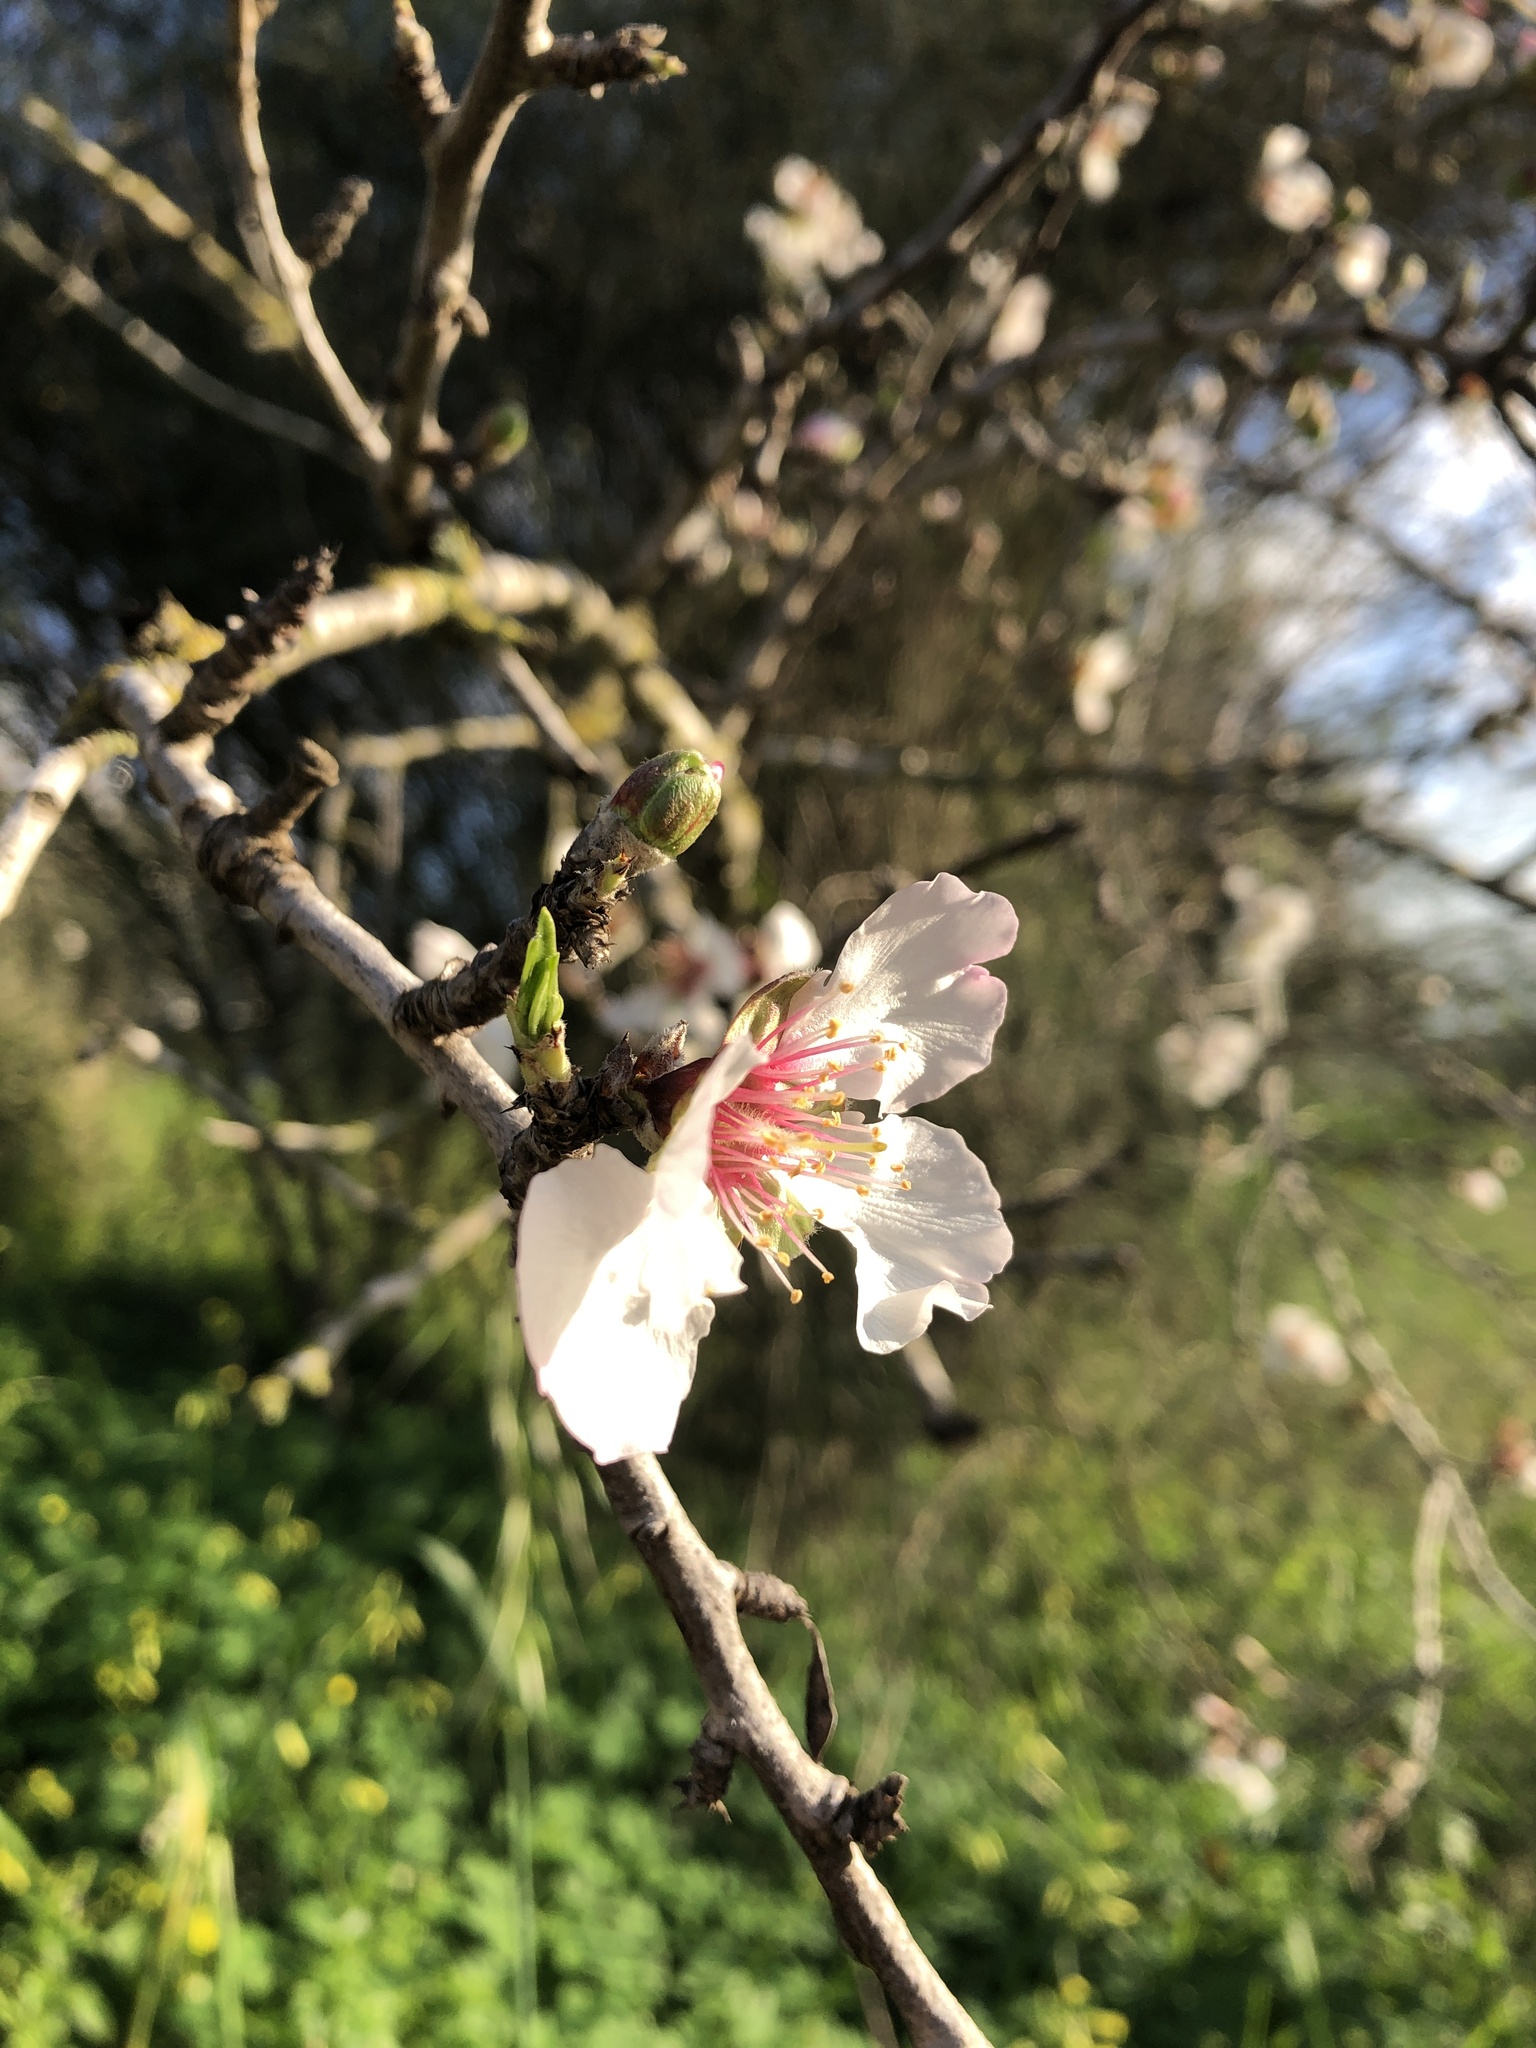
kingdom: Plantae
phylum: Tracheophyta
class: Magnoliopsida
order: Rosales
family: Rosaceae
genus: Prunus
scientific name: Prunus amygdalus
